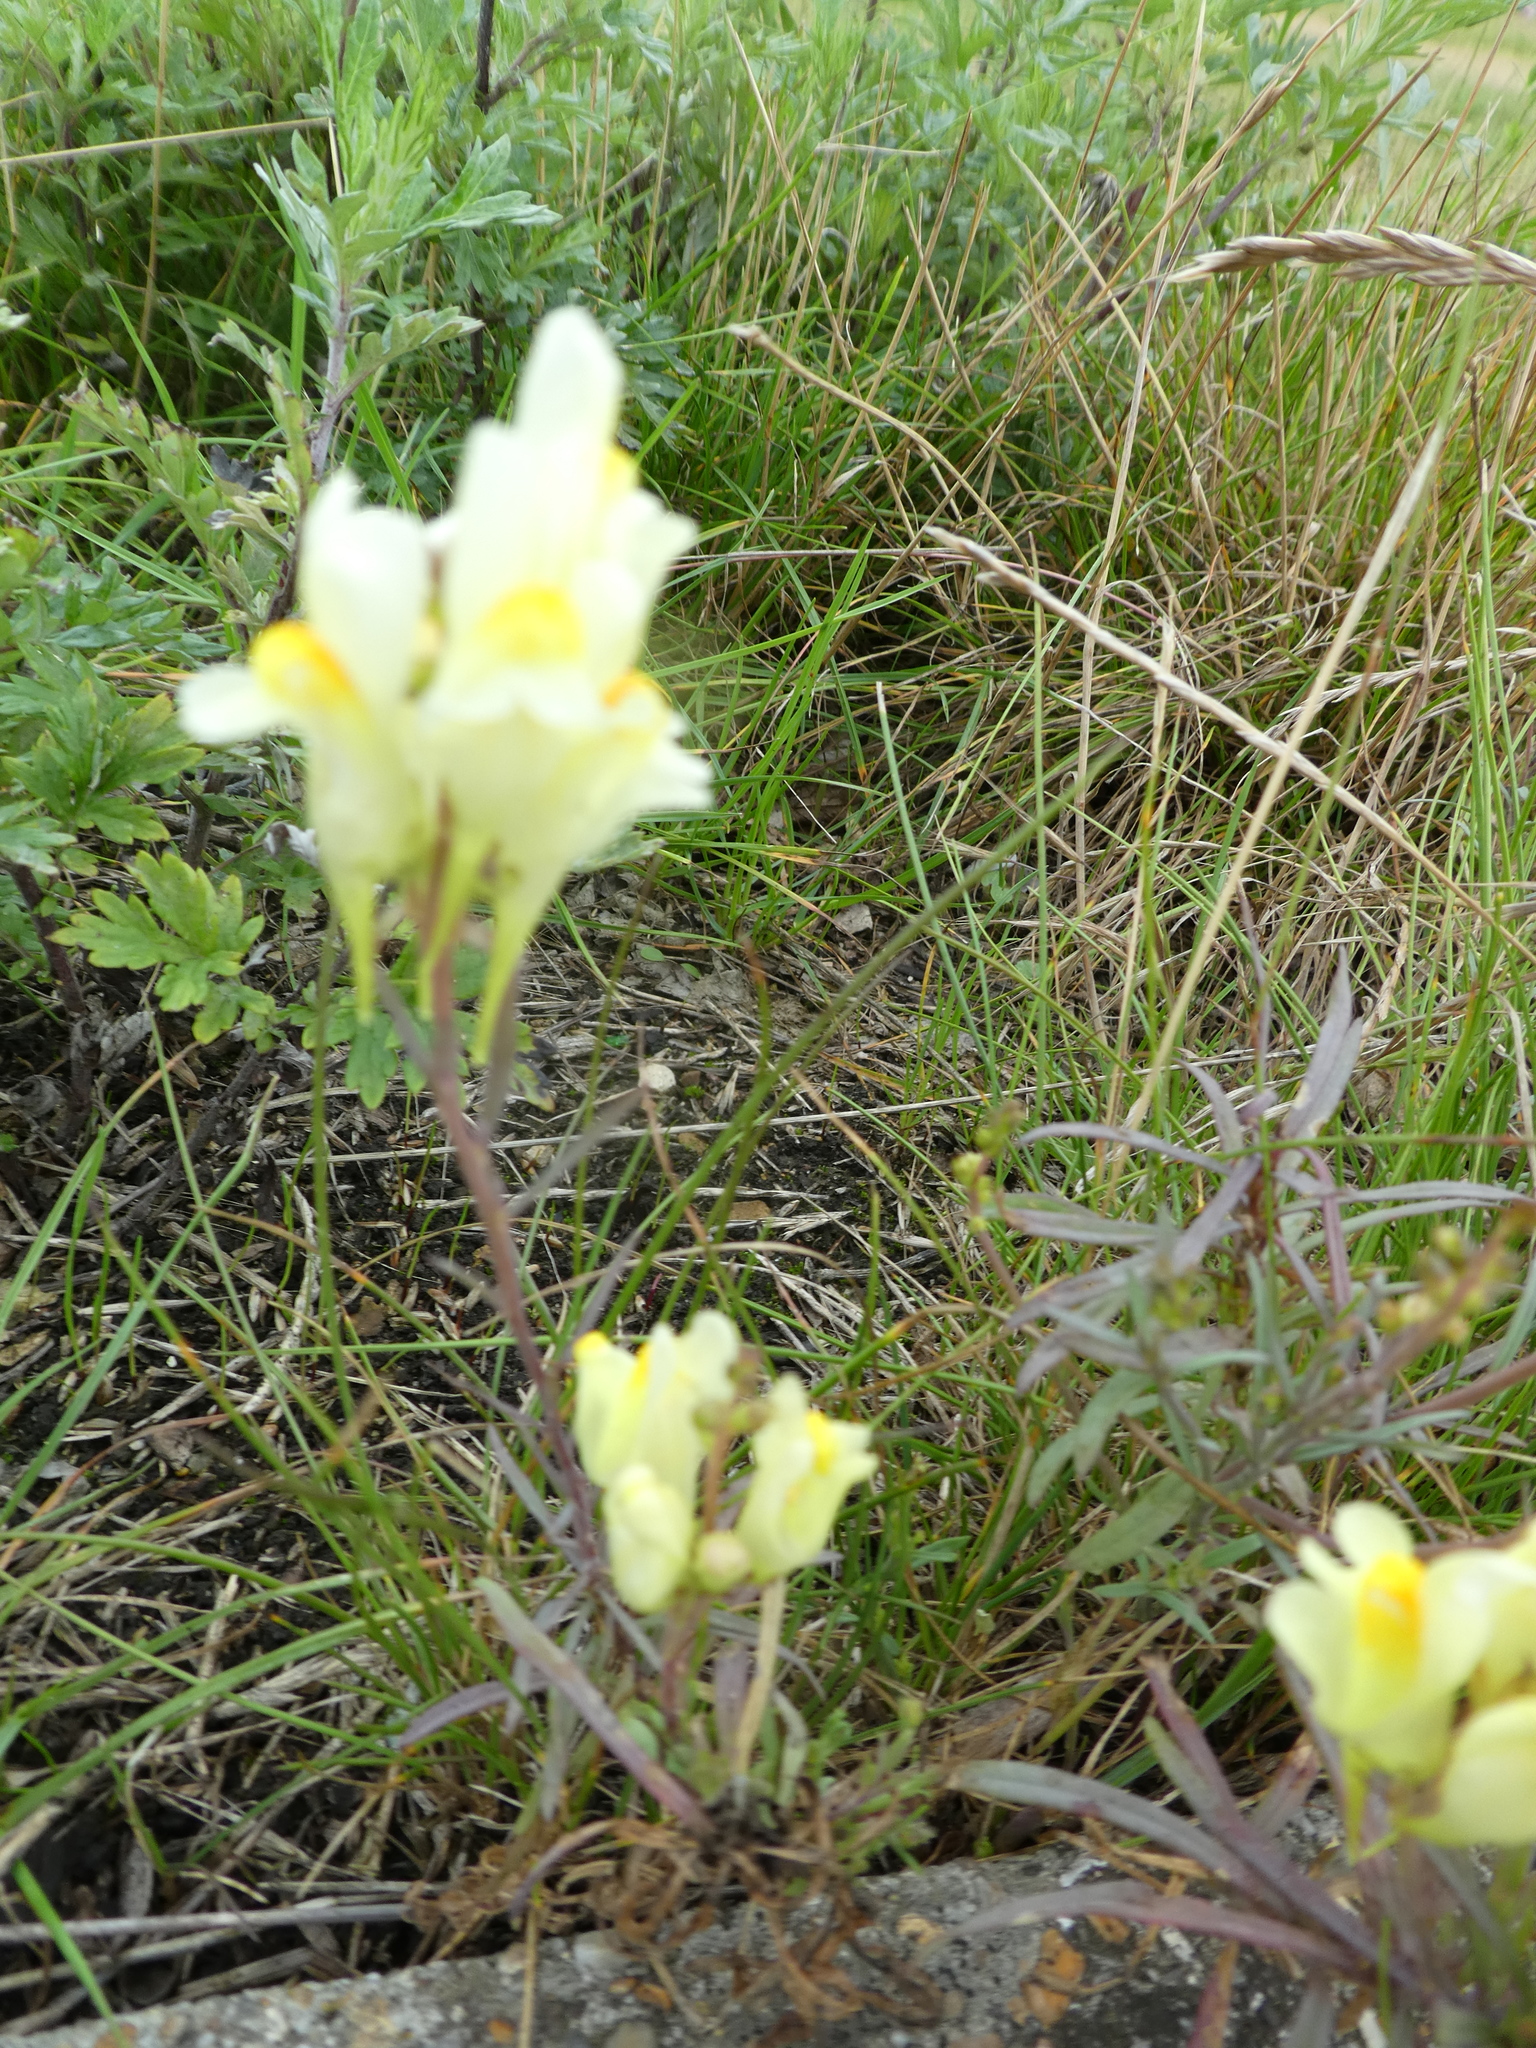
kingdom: Plantae
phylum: Tracheophyta
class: Magnoliopsida
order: Lamiales
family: Plantaginaceae
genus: Linaria
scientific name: Linaria vulgaris
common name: Butter and eggs
